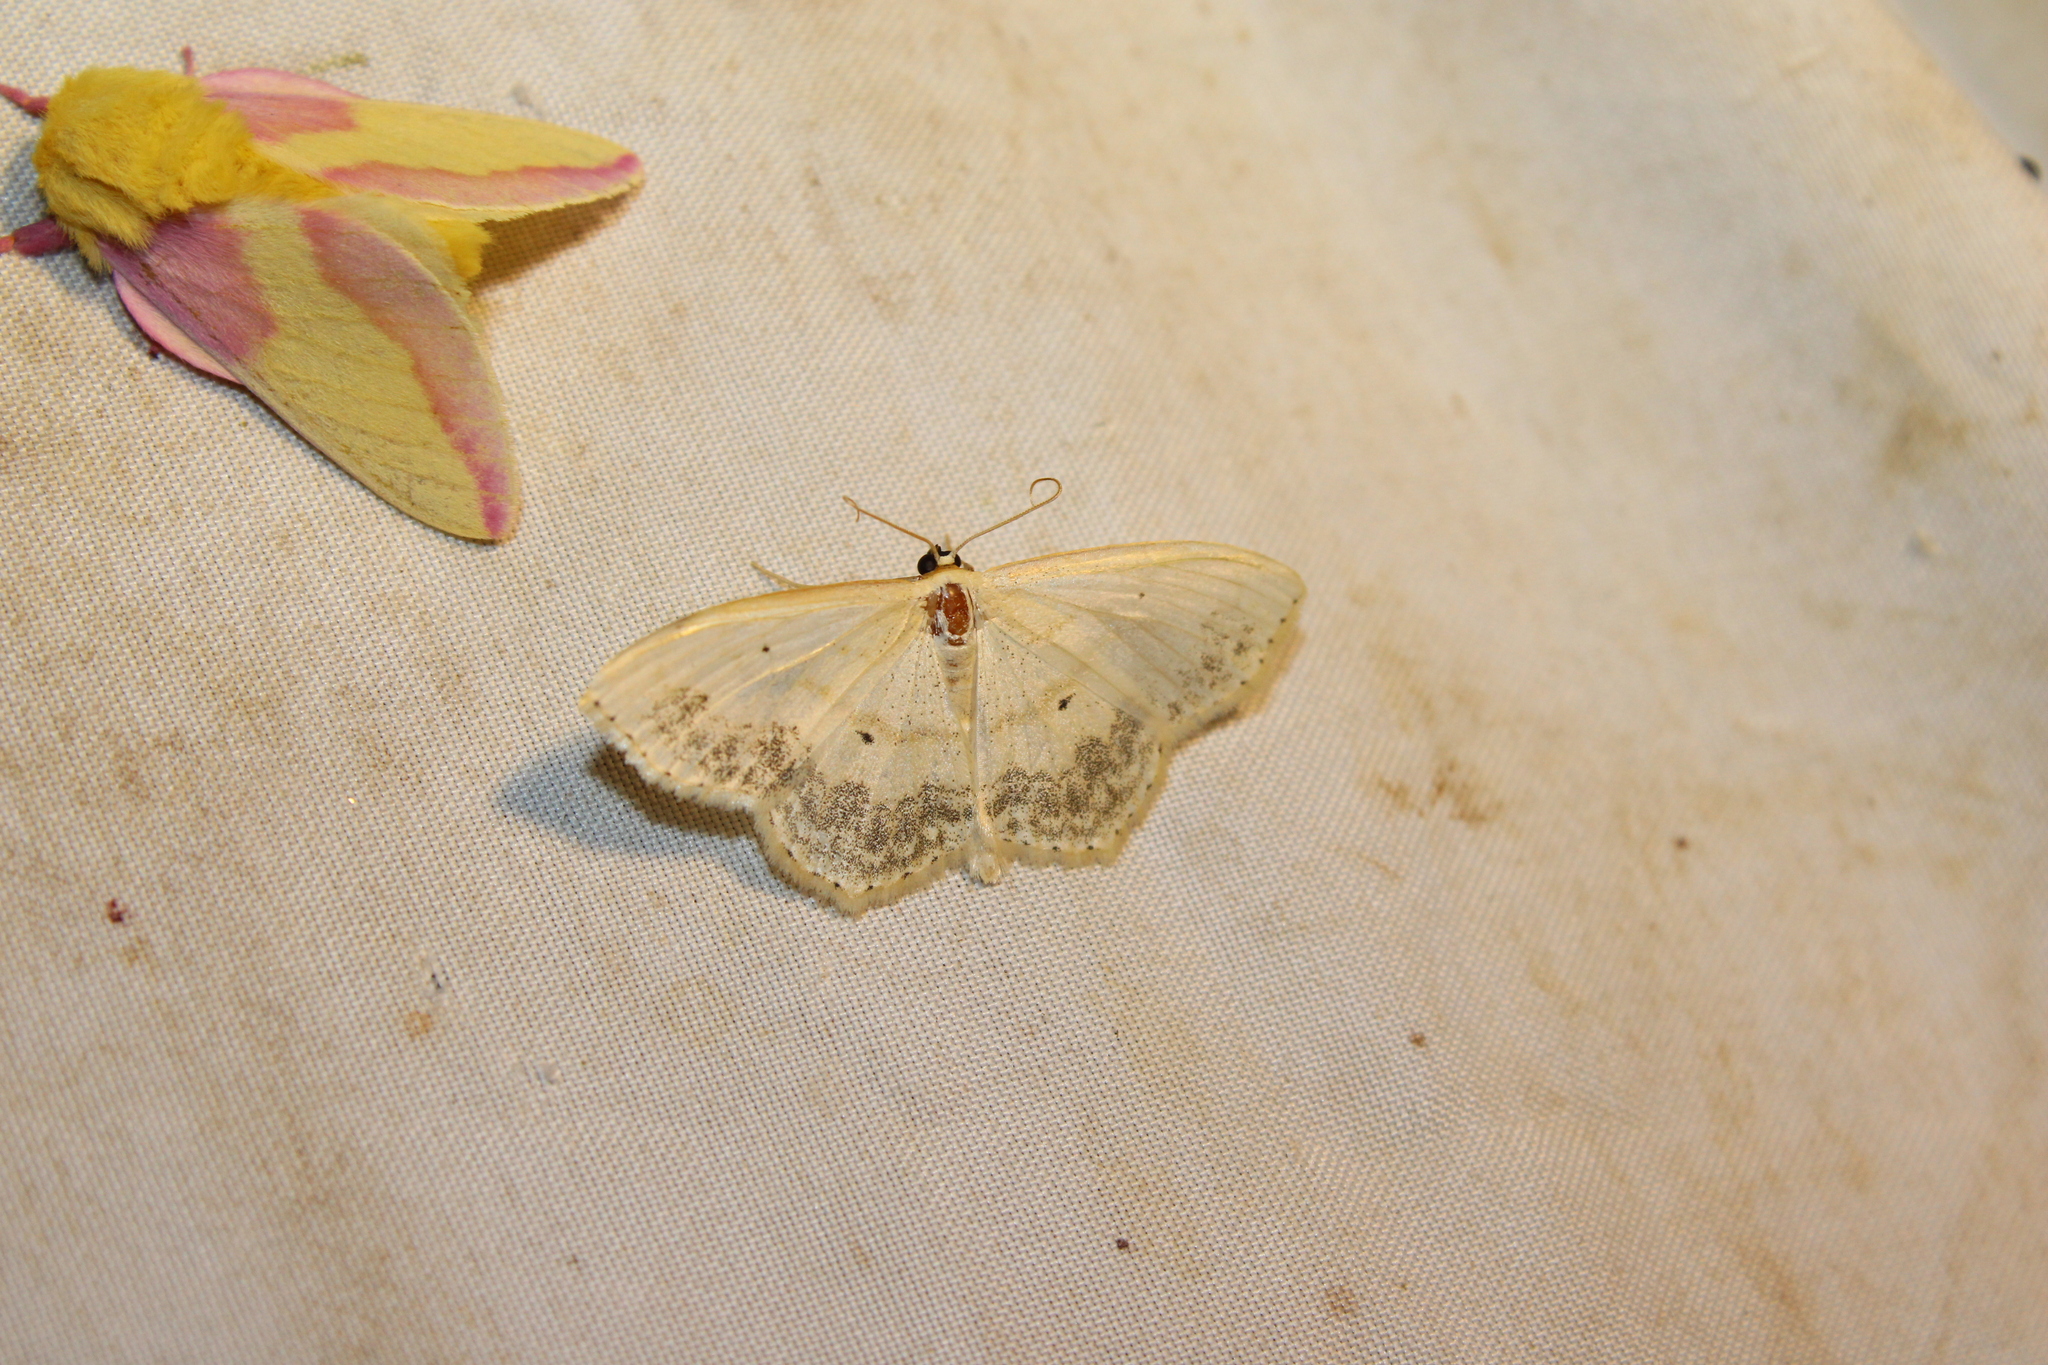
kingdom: Animalia
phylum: Arthropoda
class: Insecta
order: Lepidoptera
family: Geometridae
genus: Scopula
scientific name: Scopula limboundata
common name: Large lace border
